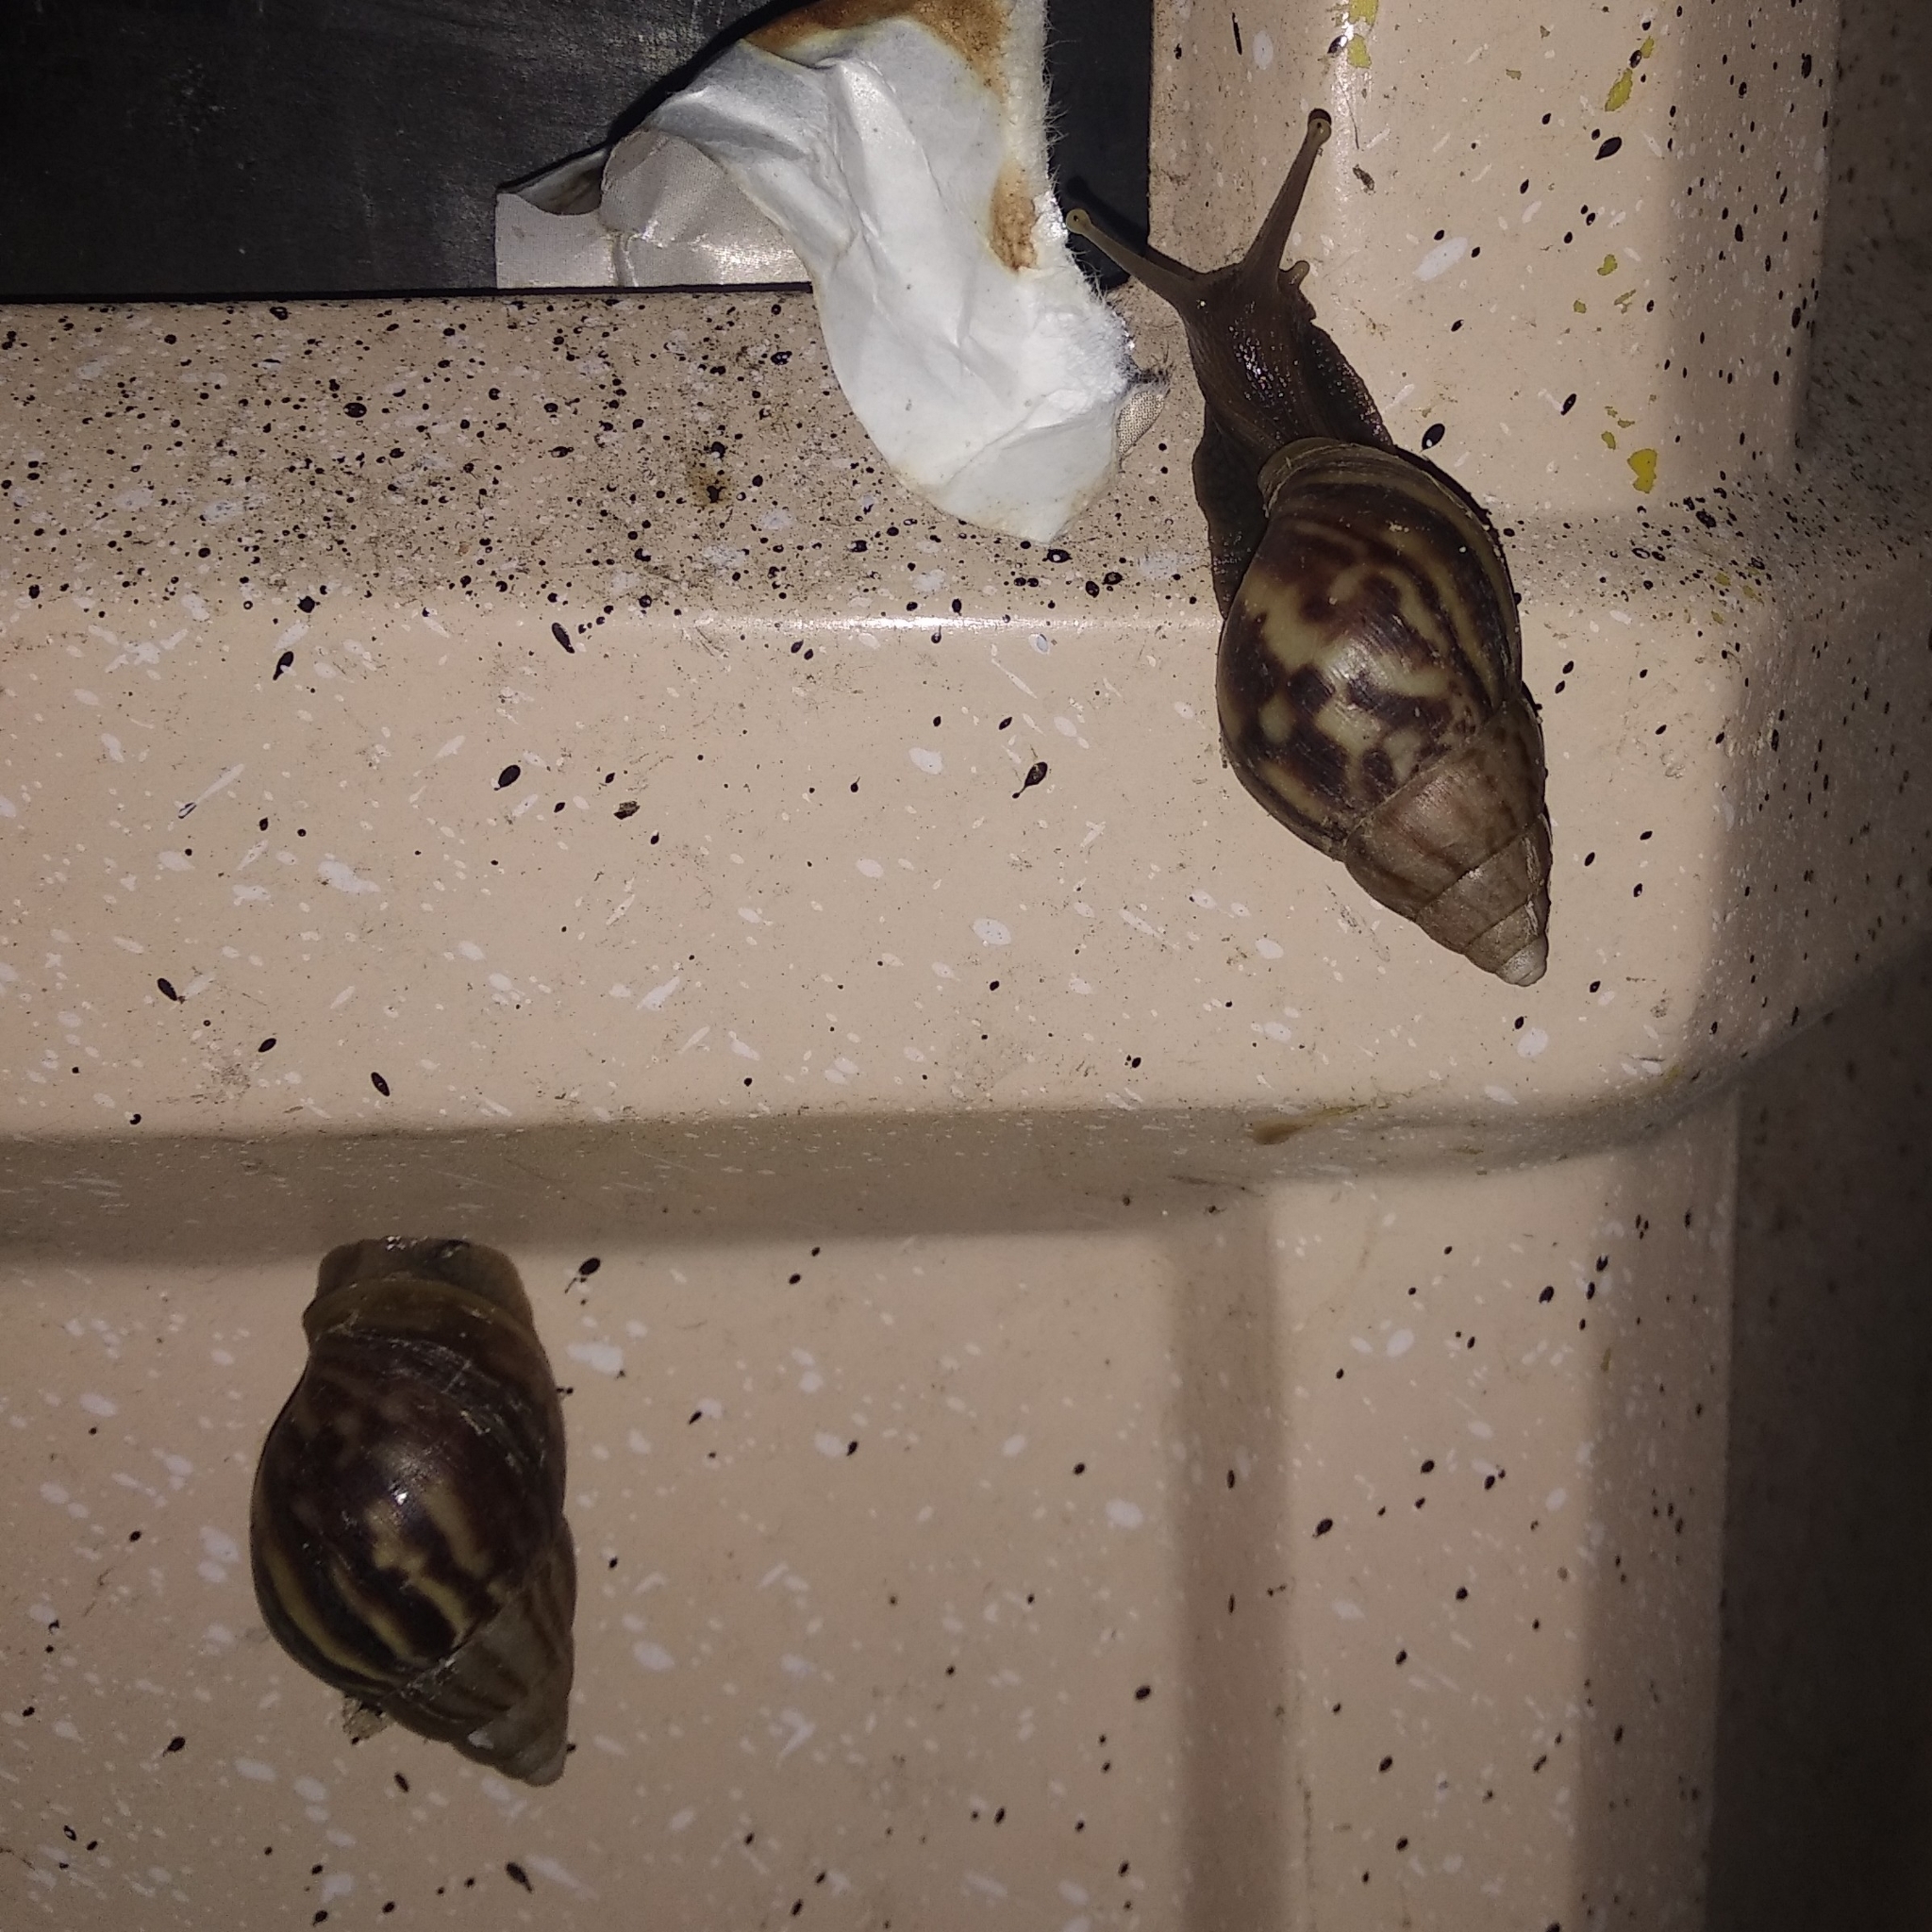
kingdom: Animalia
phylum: Mollusca
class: Gastropoda
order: Stylommatophora
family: Achatinidae
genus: Lissachatina
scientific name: Lissachatina fulica
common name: Giant african snail
